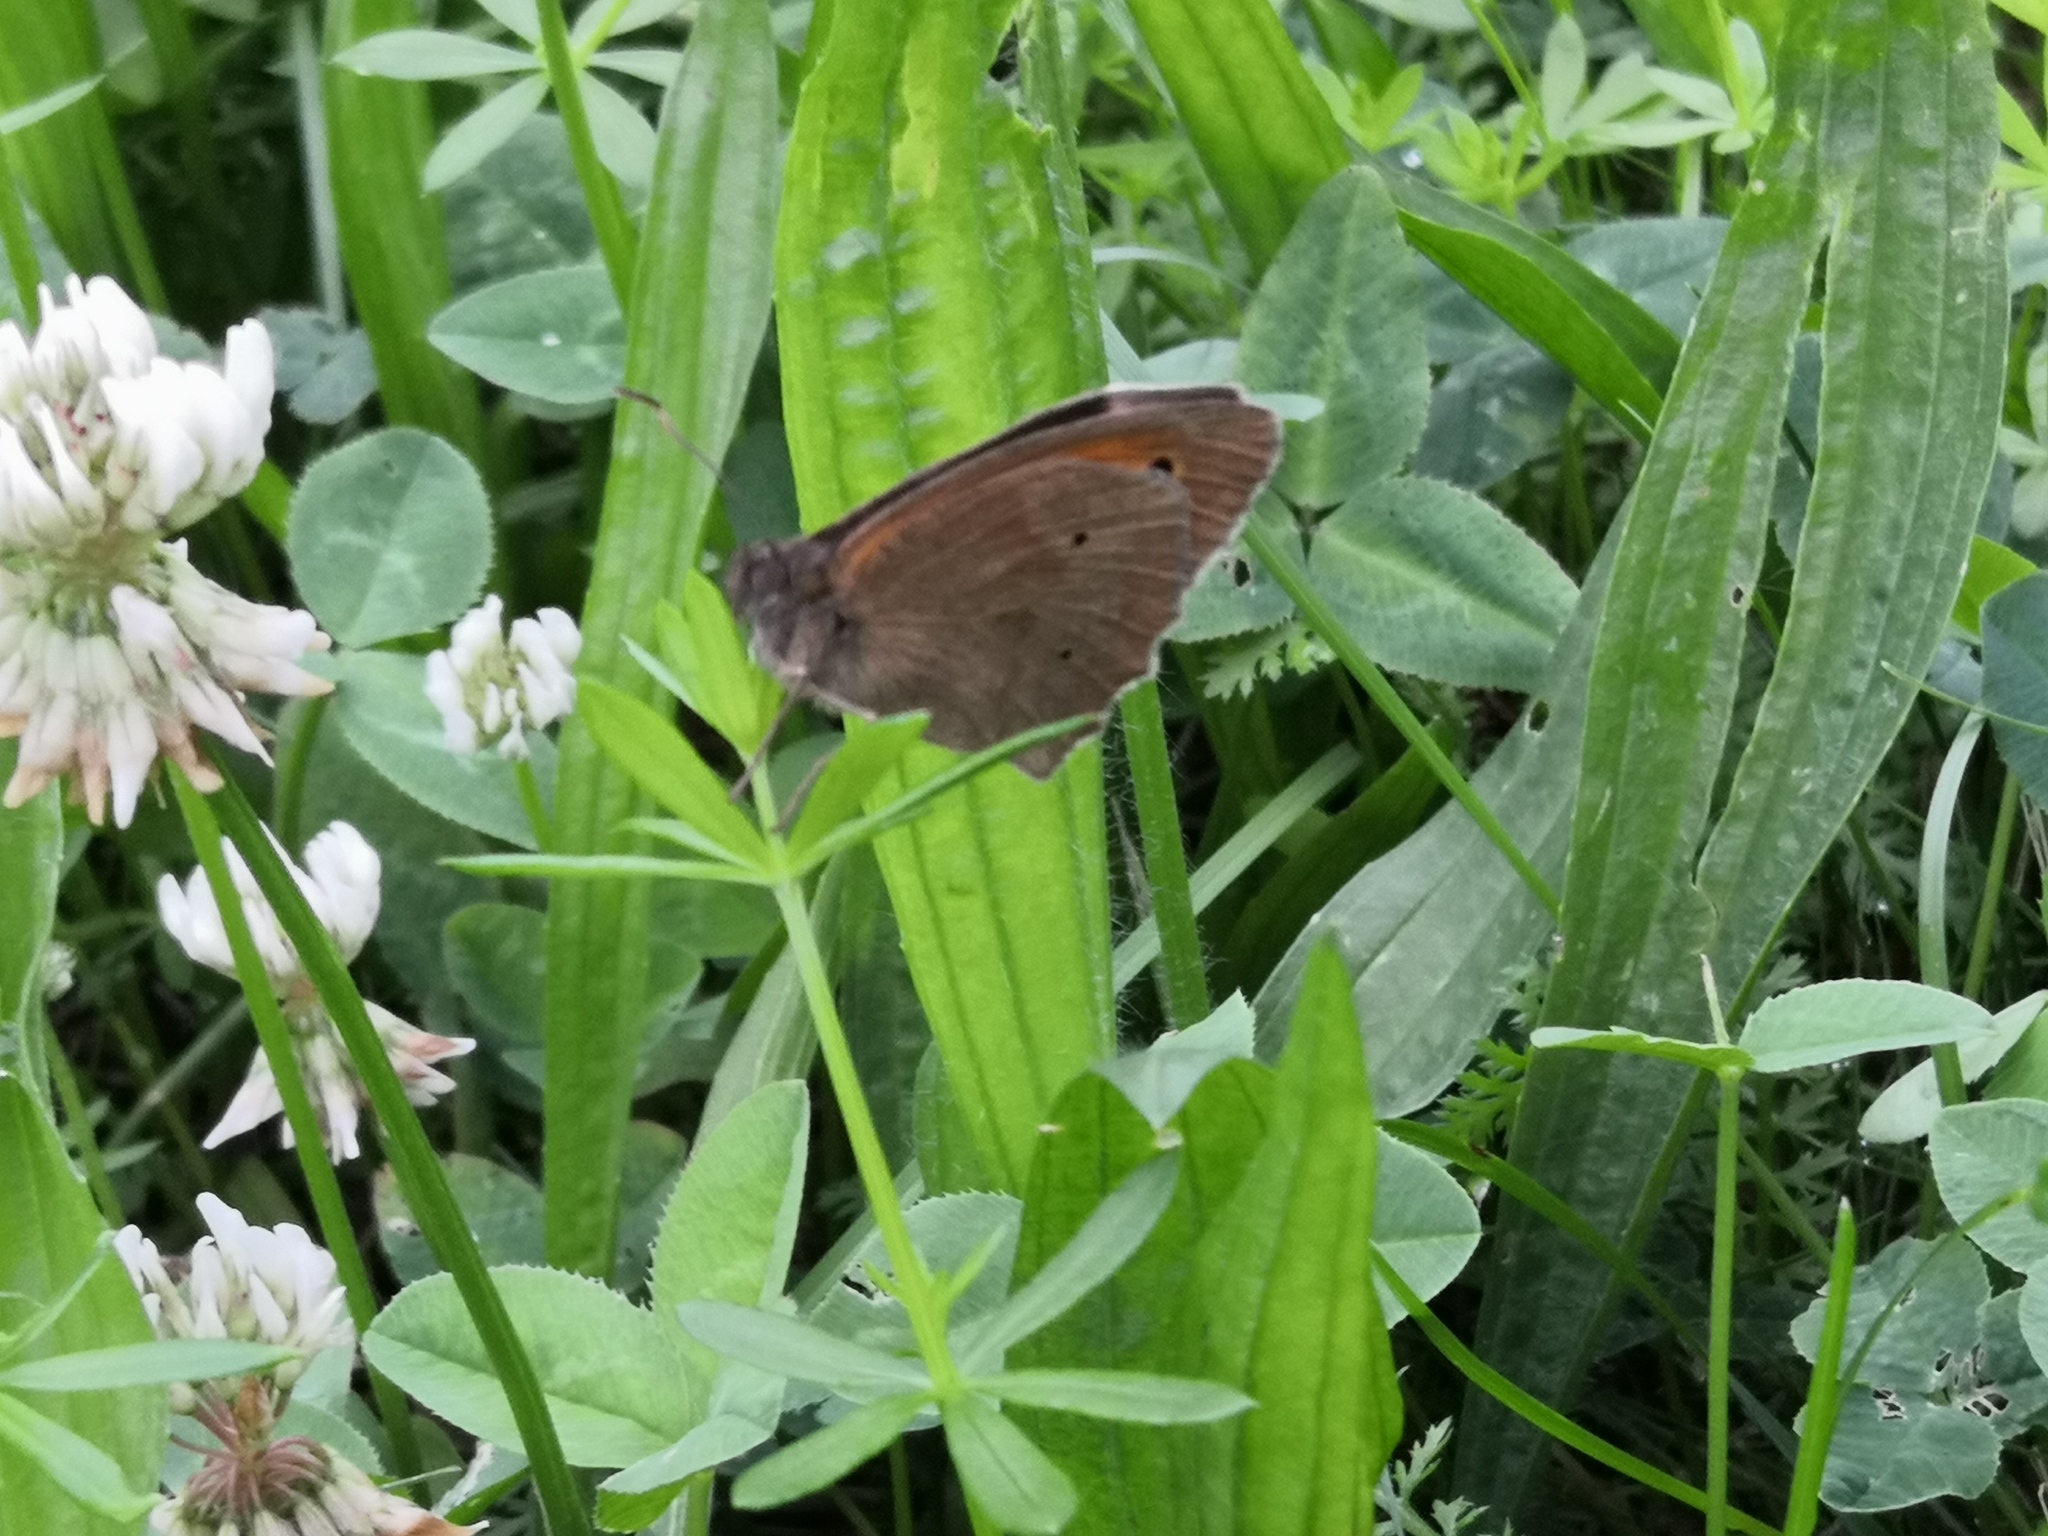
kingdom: Animalia
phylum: Arthropoda
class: Insecta
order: Lepidoptera
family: Nymphalidae
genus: Maniola
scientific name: Maniola jurtina
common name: Meadow brown
